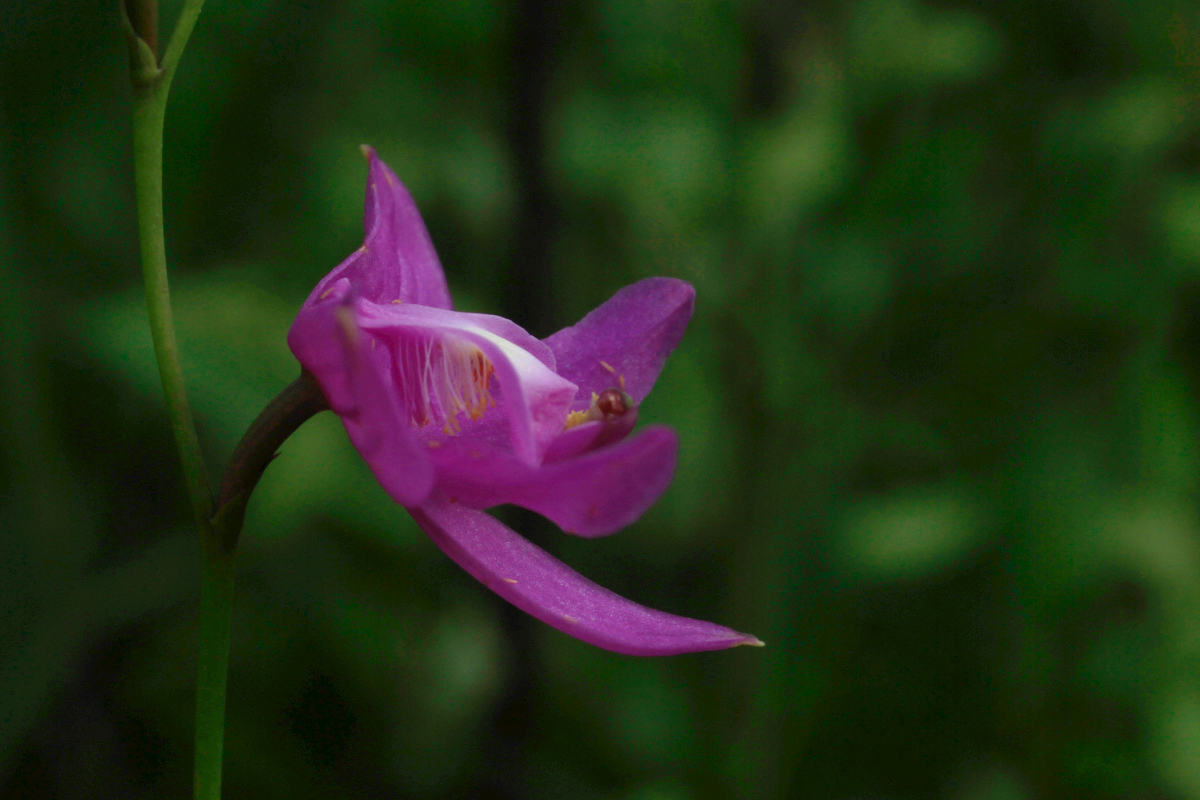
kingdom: Plantae
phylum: Tracheophyta
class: Liliopsida
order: Asparagales
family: Orchidaceae
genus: Calopogon
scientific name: Calopogon tuberosus
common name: Grass-pink
